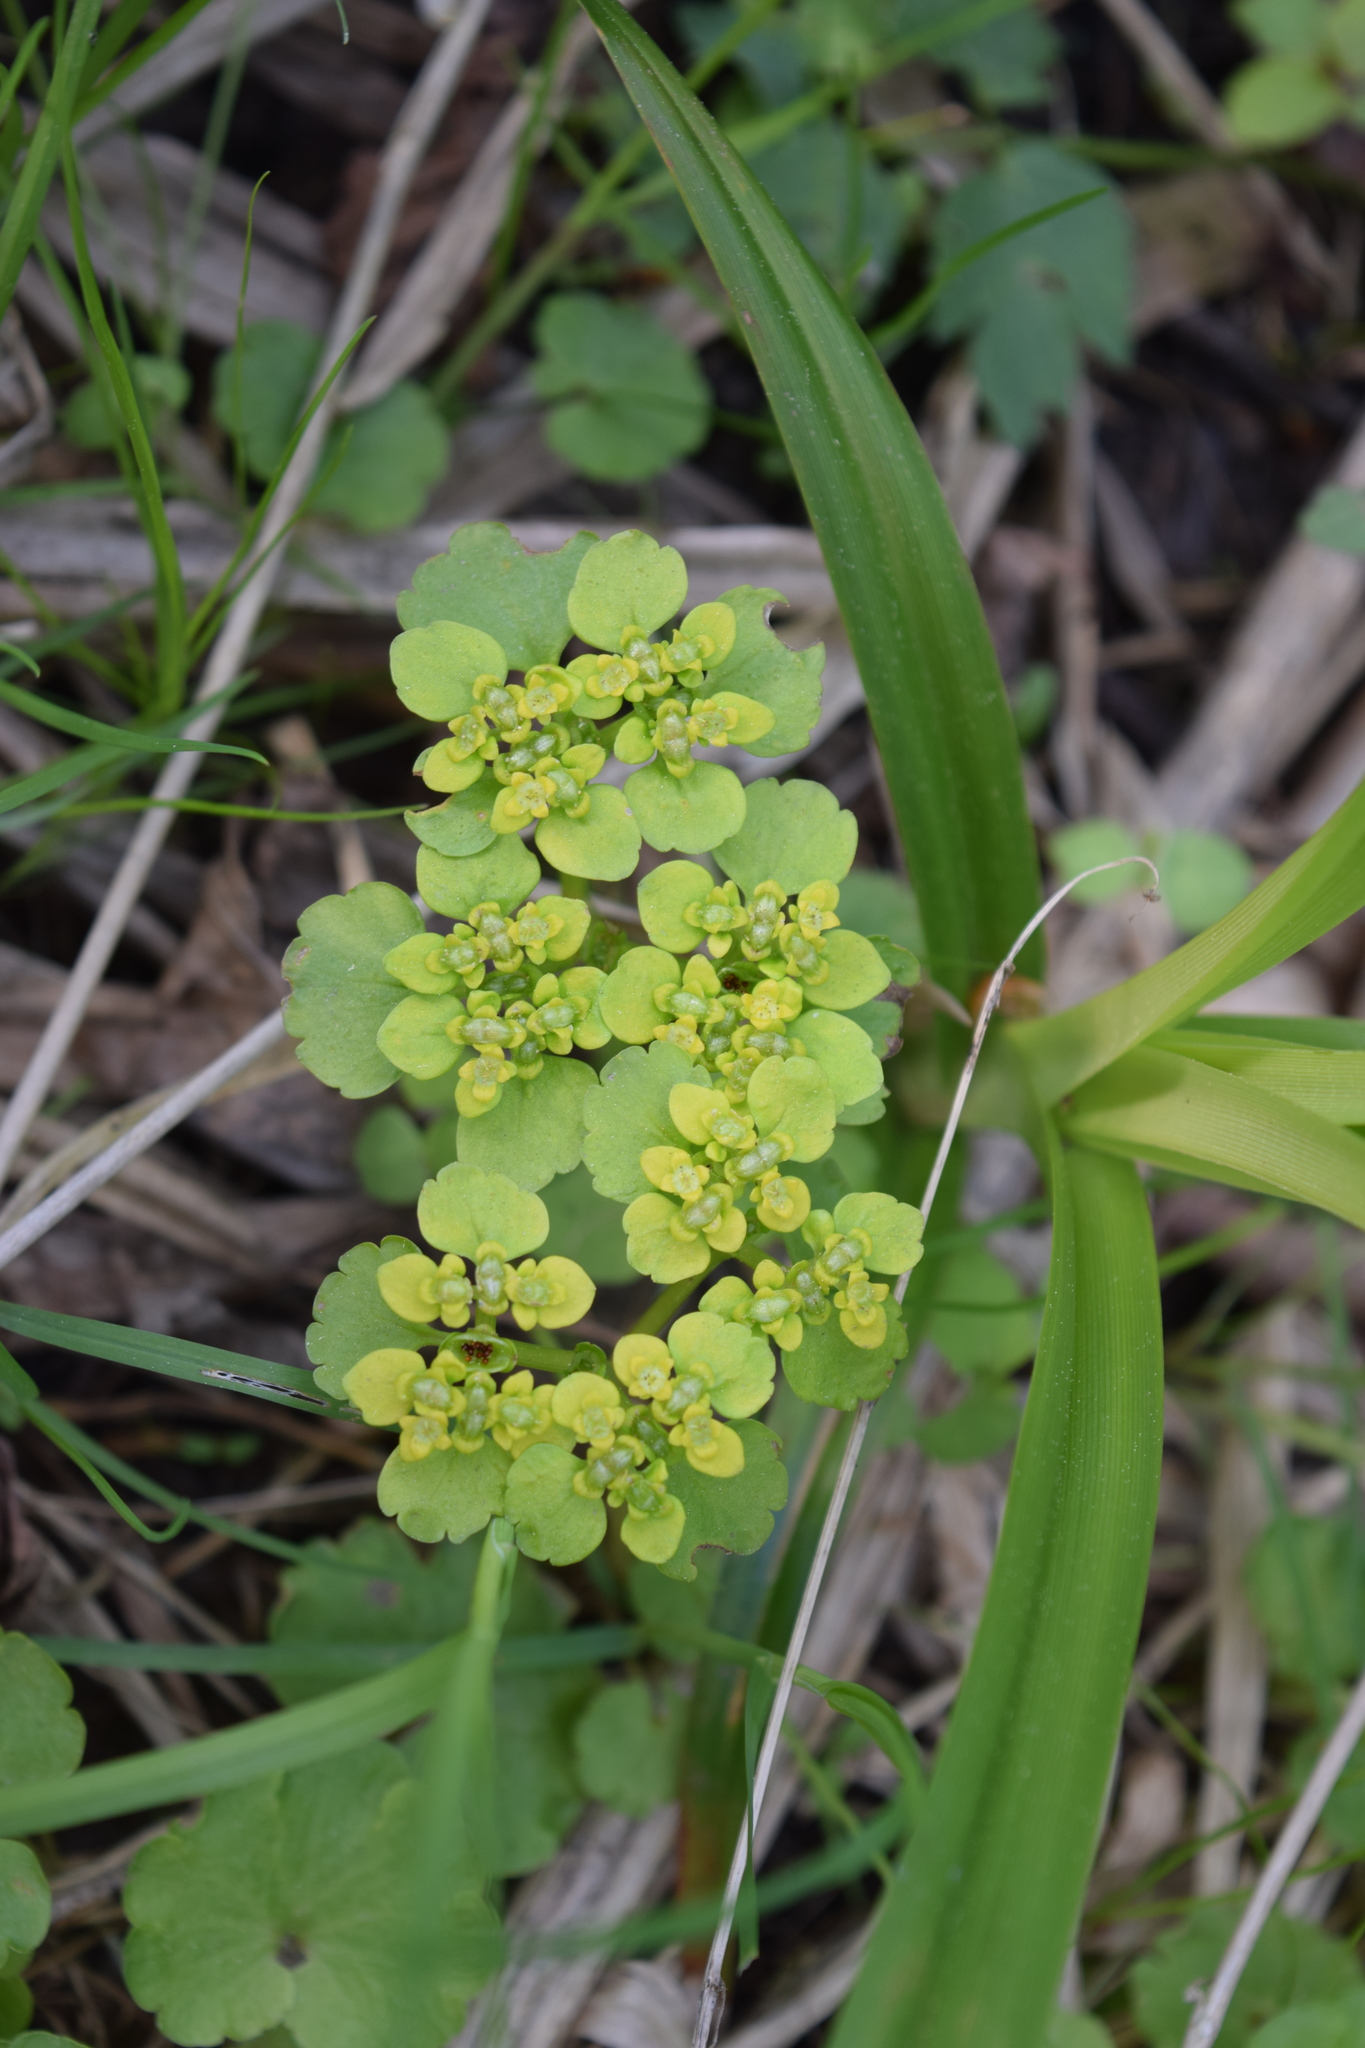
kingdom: Plantae
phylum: Tracheophyta
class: Magnoliopsida
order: Saxifragales
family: Saxifragaceae
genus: Chrysosplenium
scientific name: Chrysosplenium alternifolium
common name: Alternate-leaved golden-saxifrage
